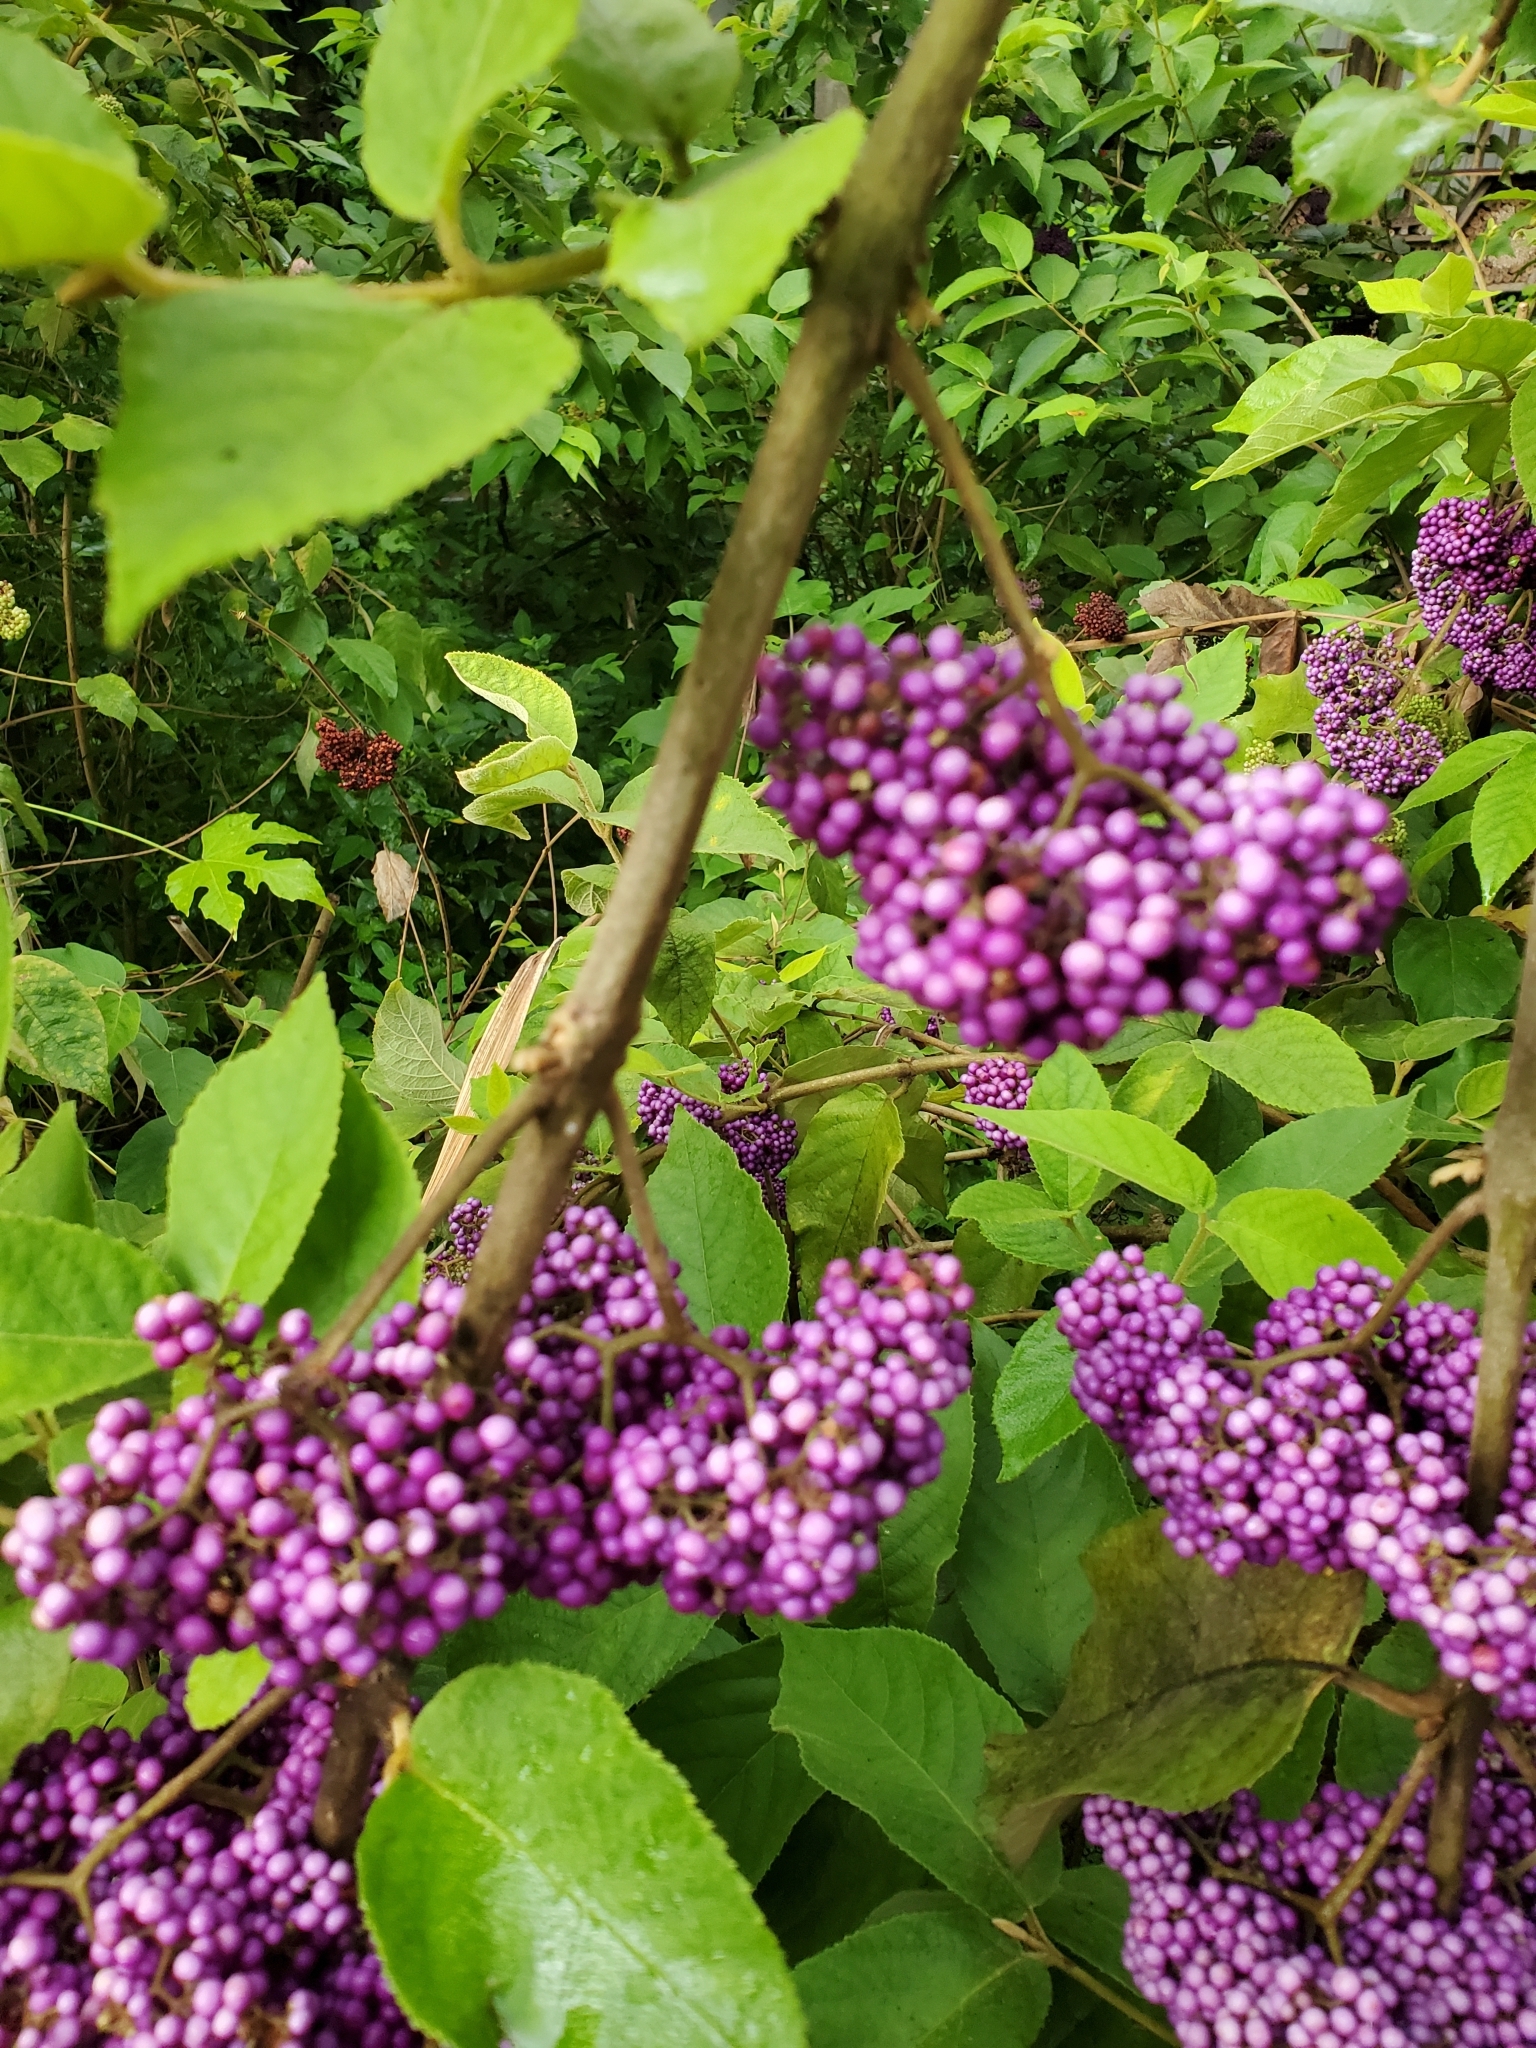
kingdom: Plantae
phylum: Tracheophyta
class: Magnoliopsida
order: Lamiales
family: Lamiaceae
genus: Callicarpa
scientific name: Callicarpa pedunculata
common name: Velvetleaf
